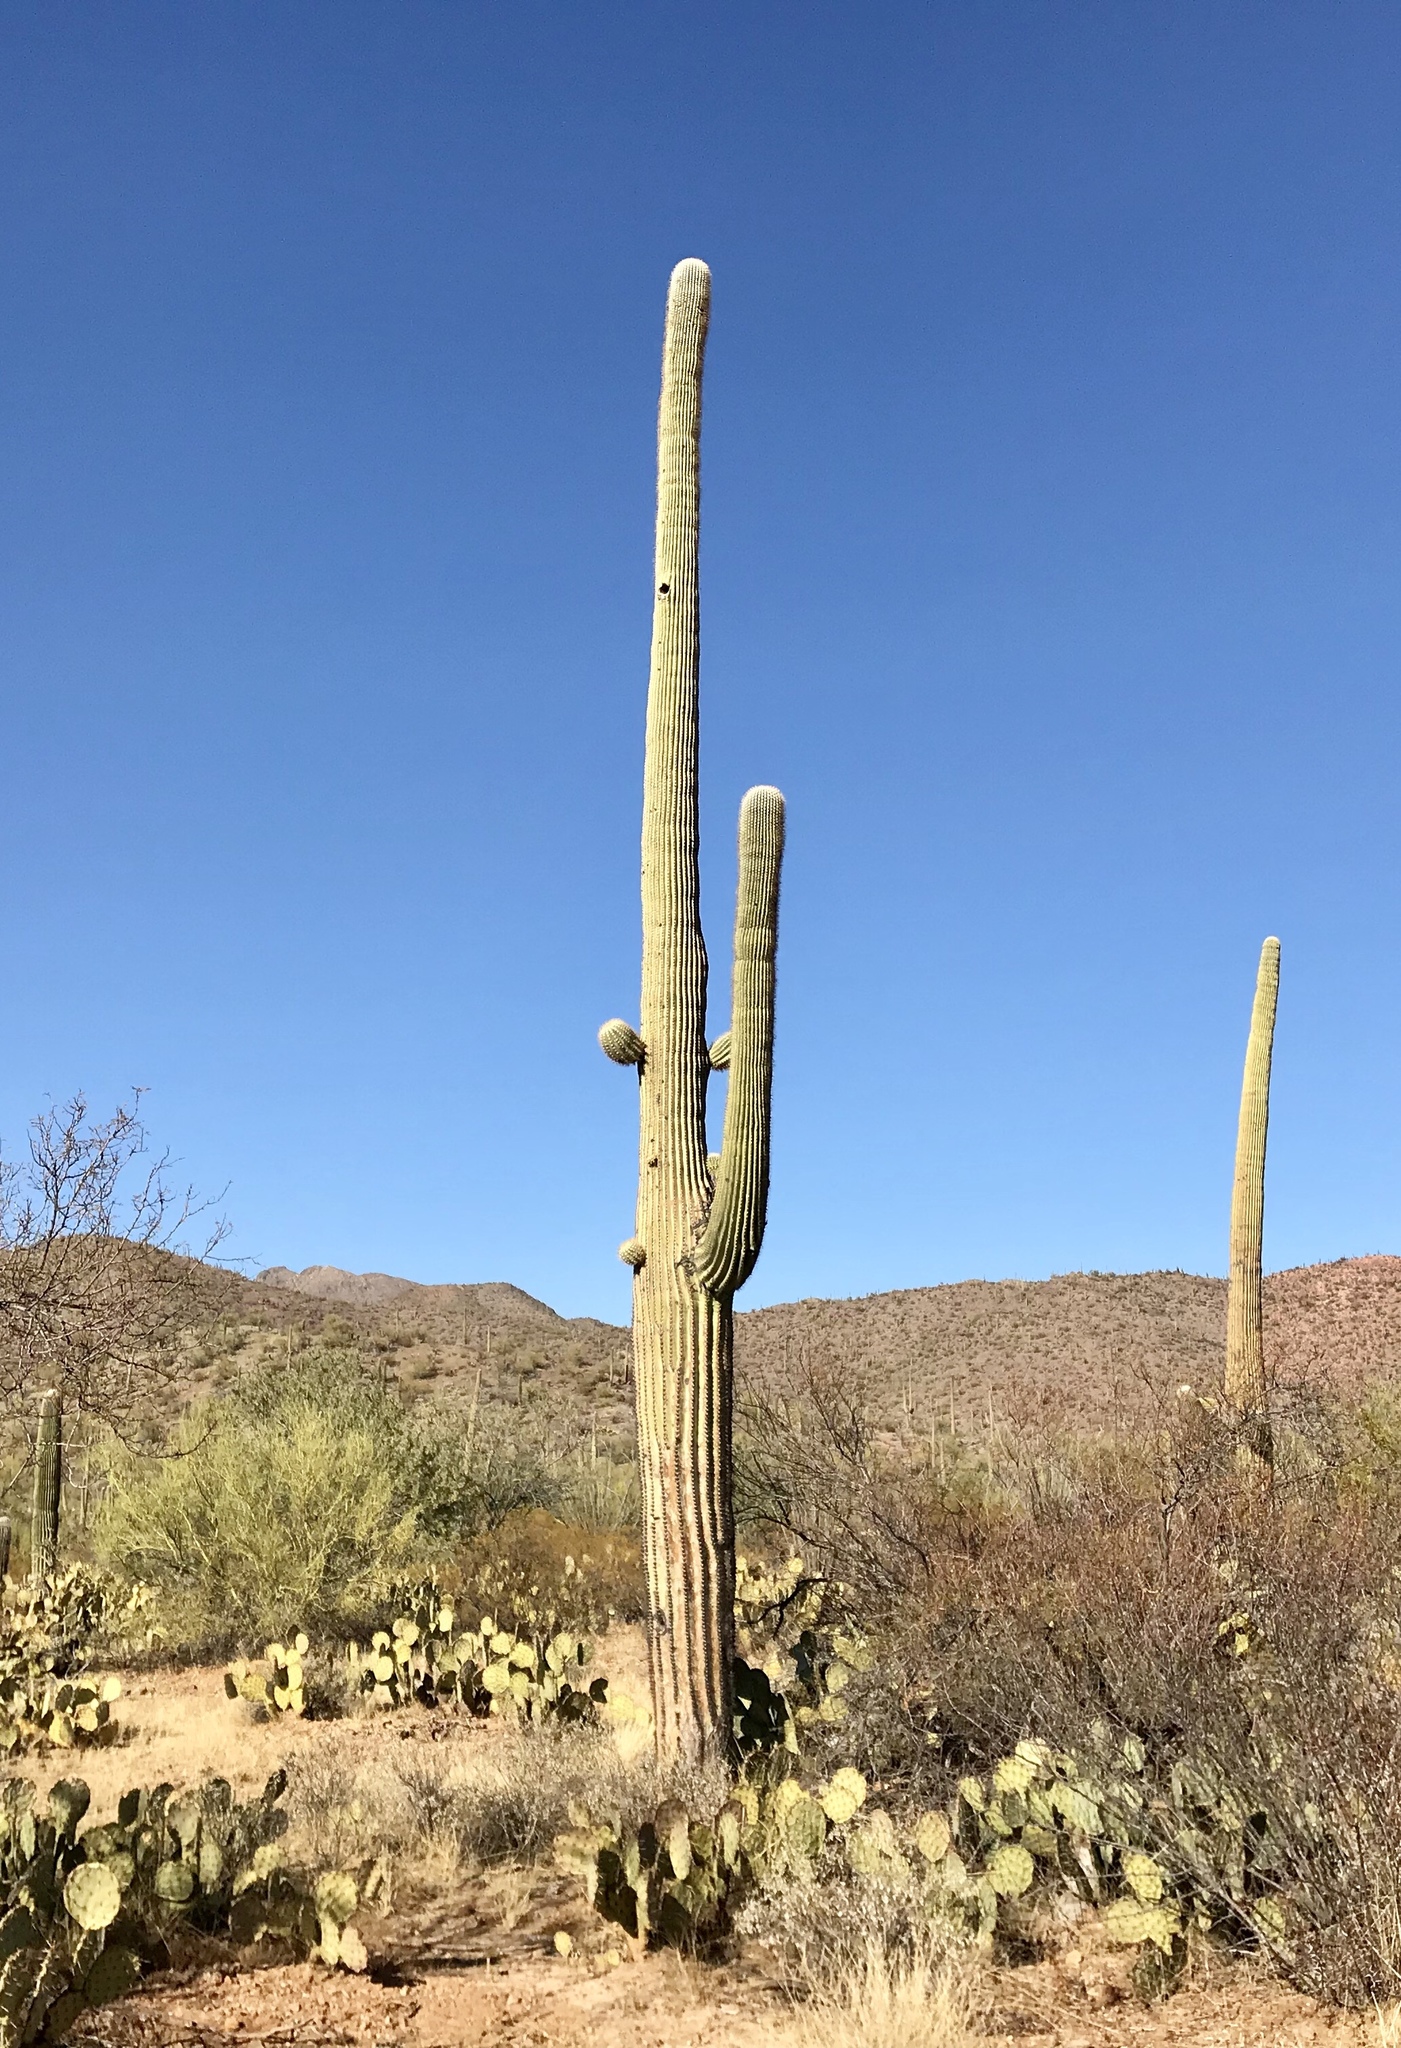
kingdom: Plantae
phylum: Tracheophyta
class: Magnoliopsida
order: Caryophyllales
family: Cactaceae
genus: Carnegiea
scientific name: Carnegiea gigantea
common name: Saguaro
